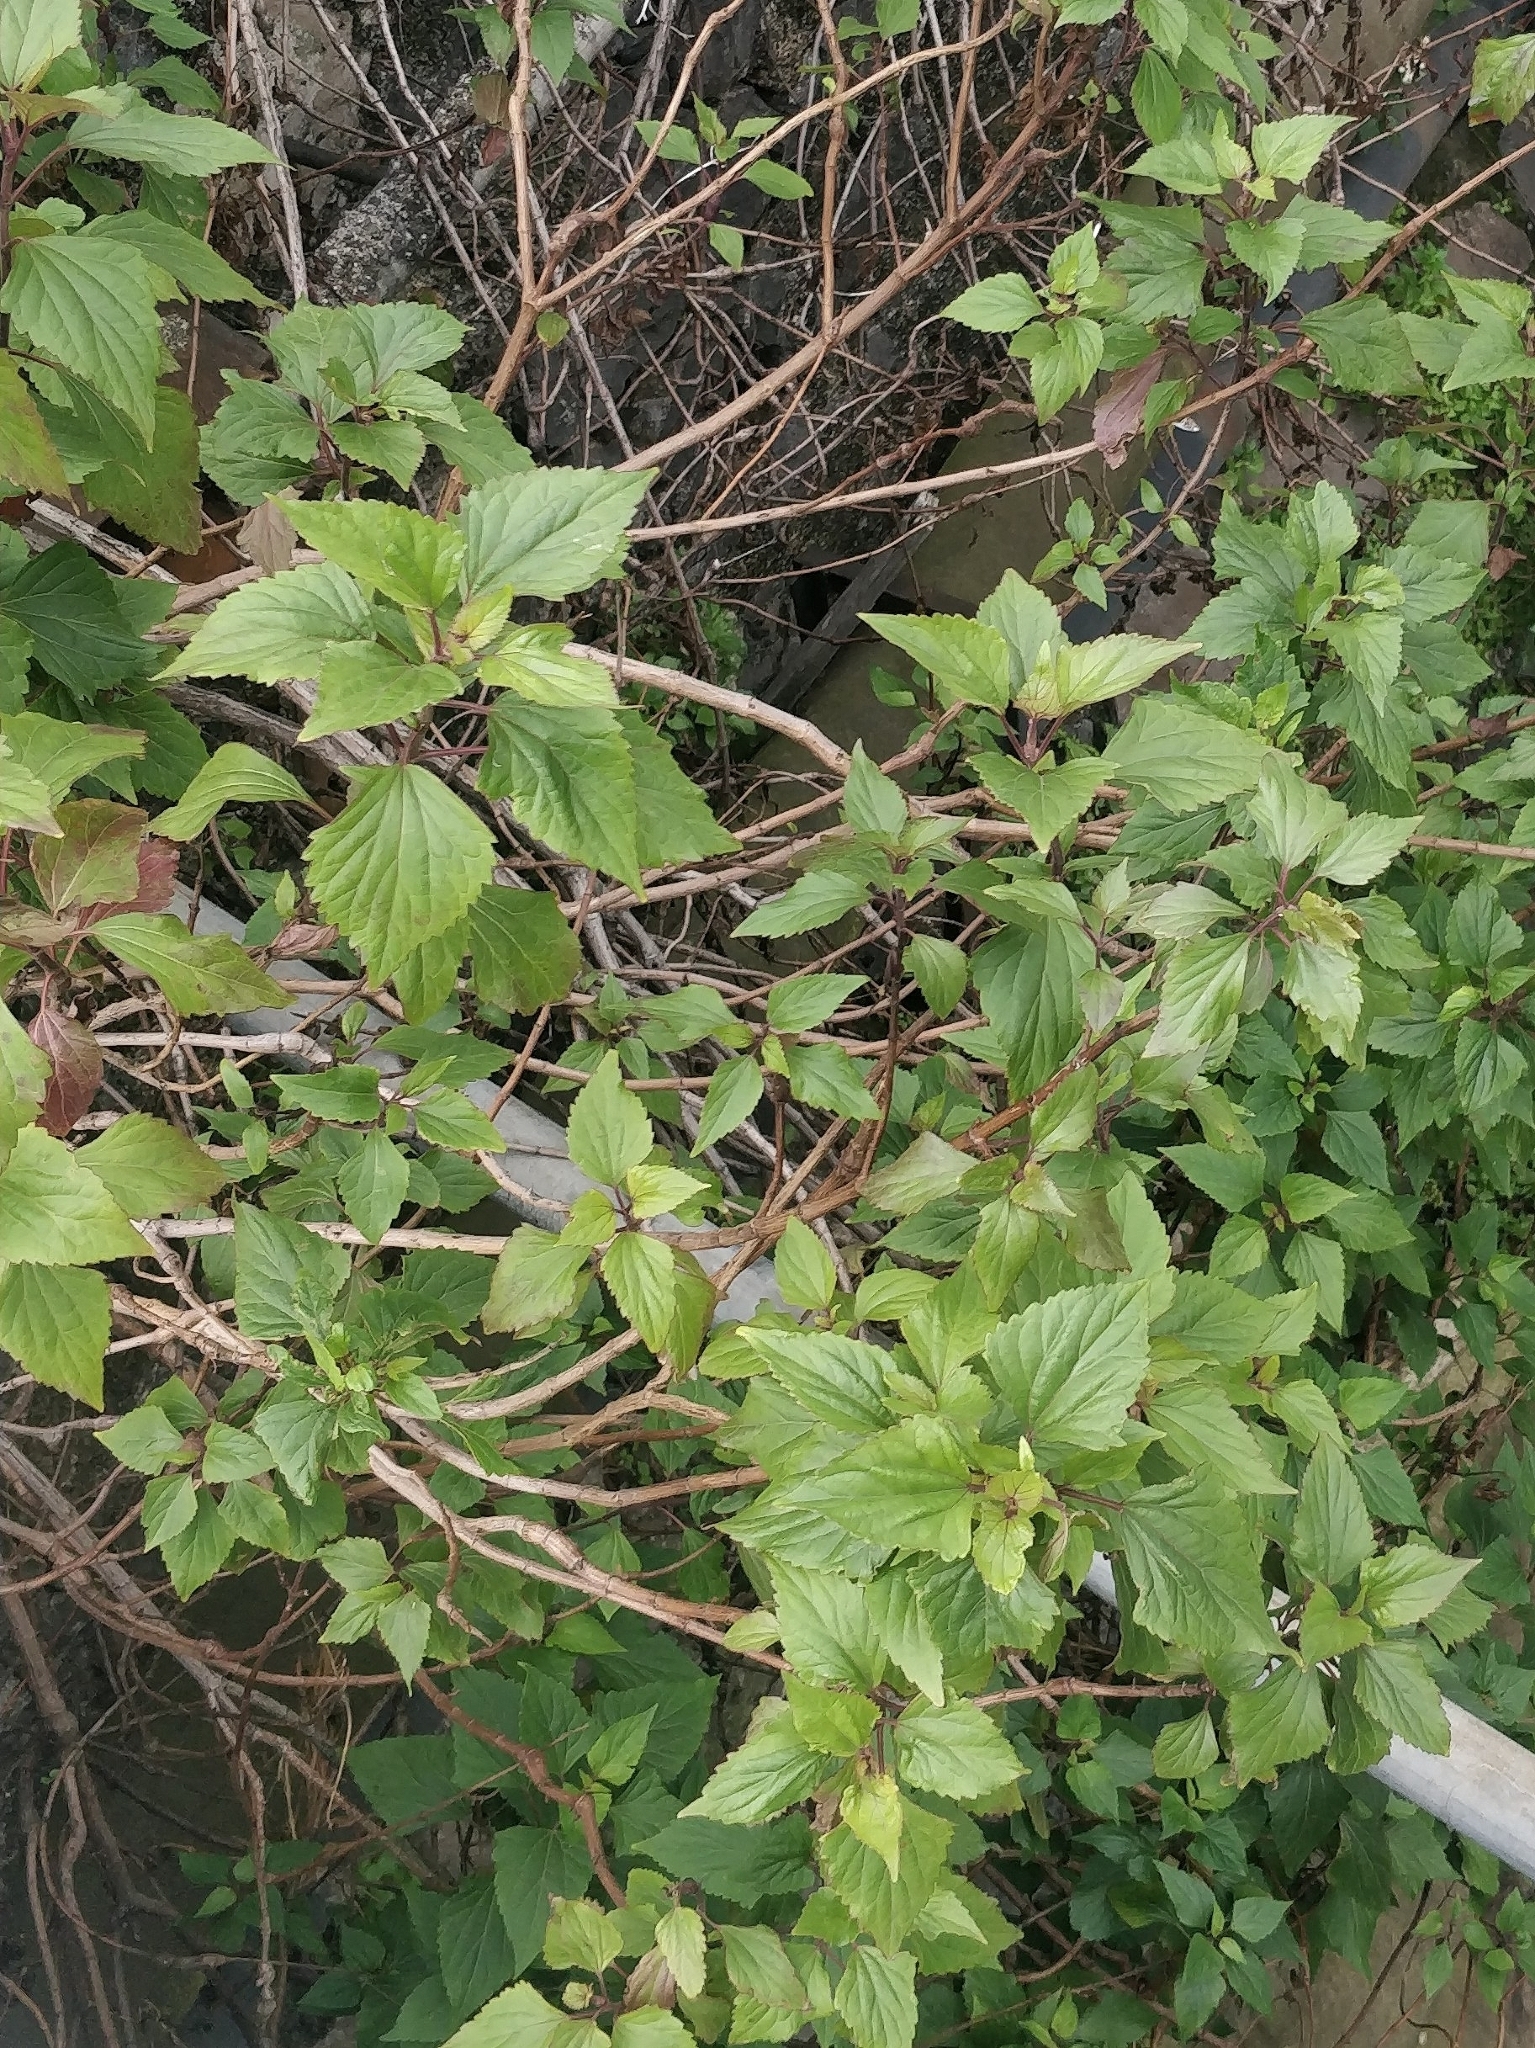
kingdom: Plantae
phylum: Tracheophyta
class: Magnoliopsida
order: Asterales
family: Asteraceae
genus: Ageratina
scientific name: Ageratina adenophora
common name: Sticky snakeroot
